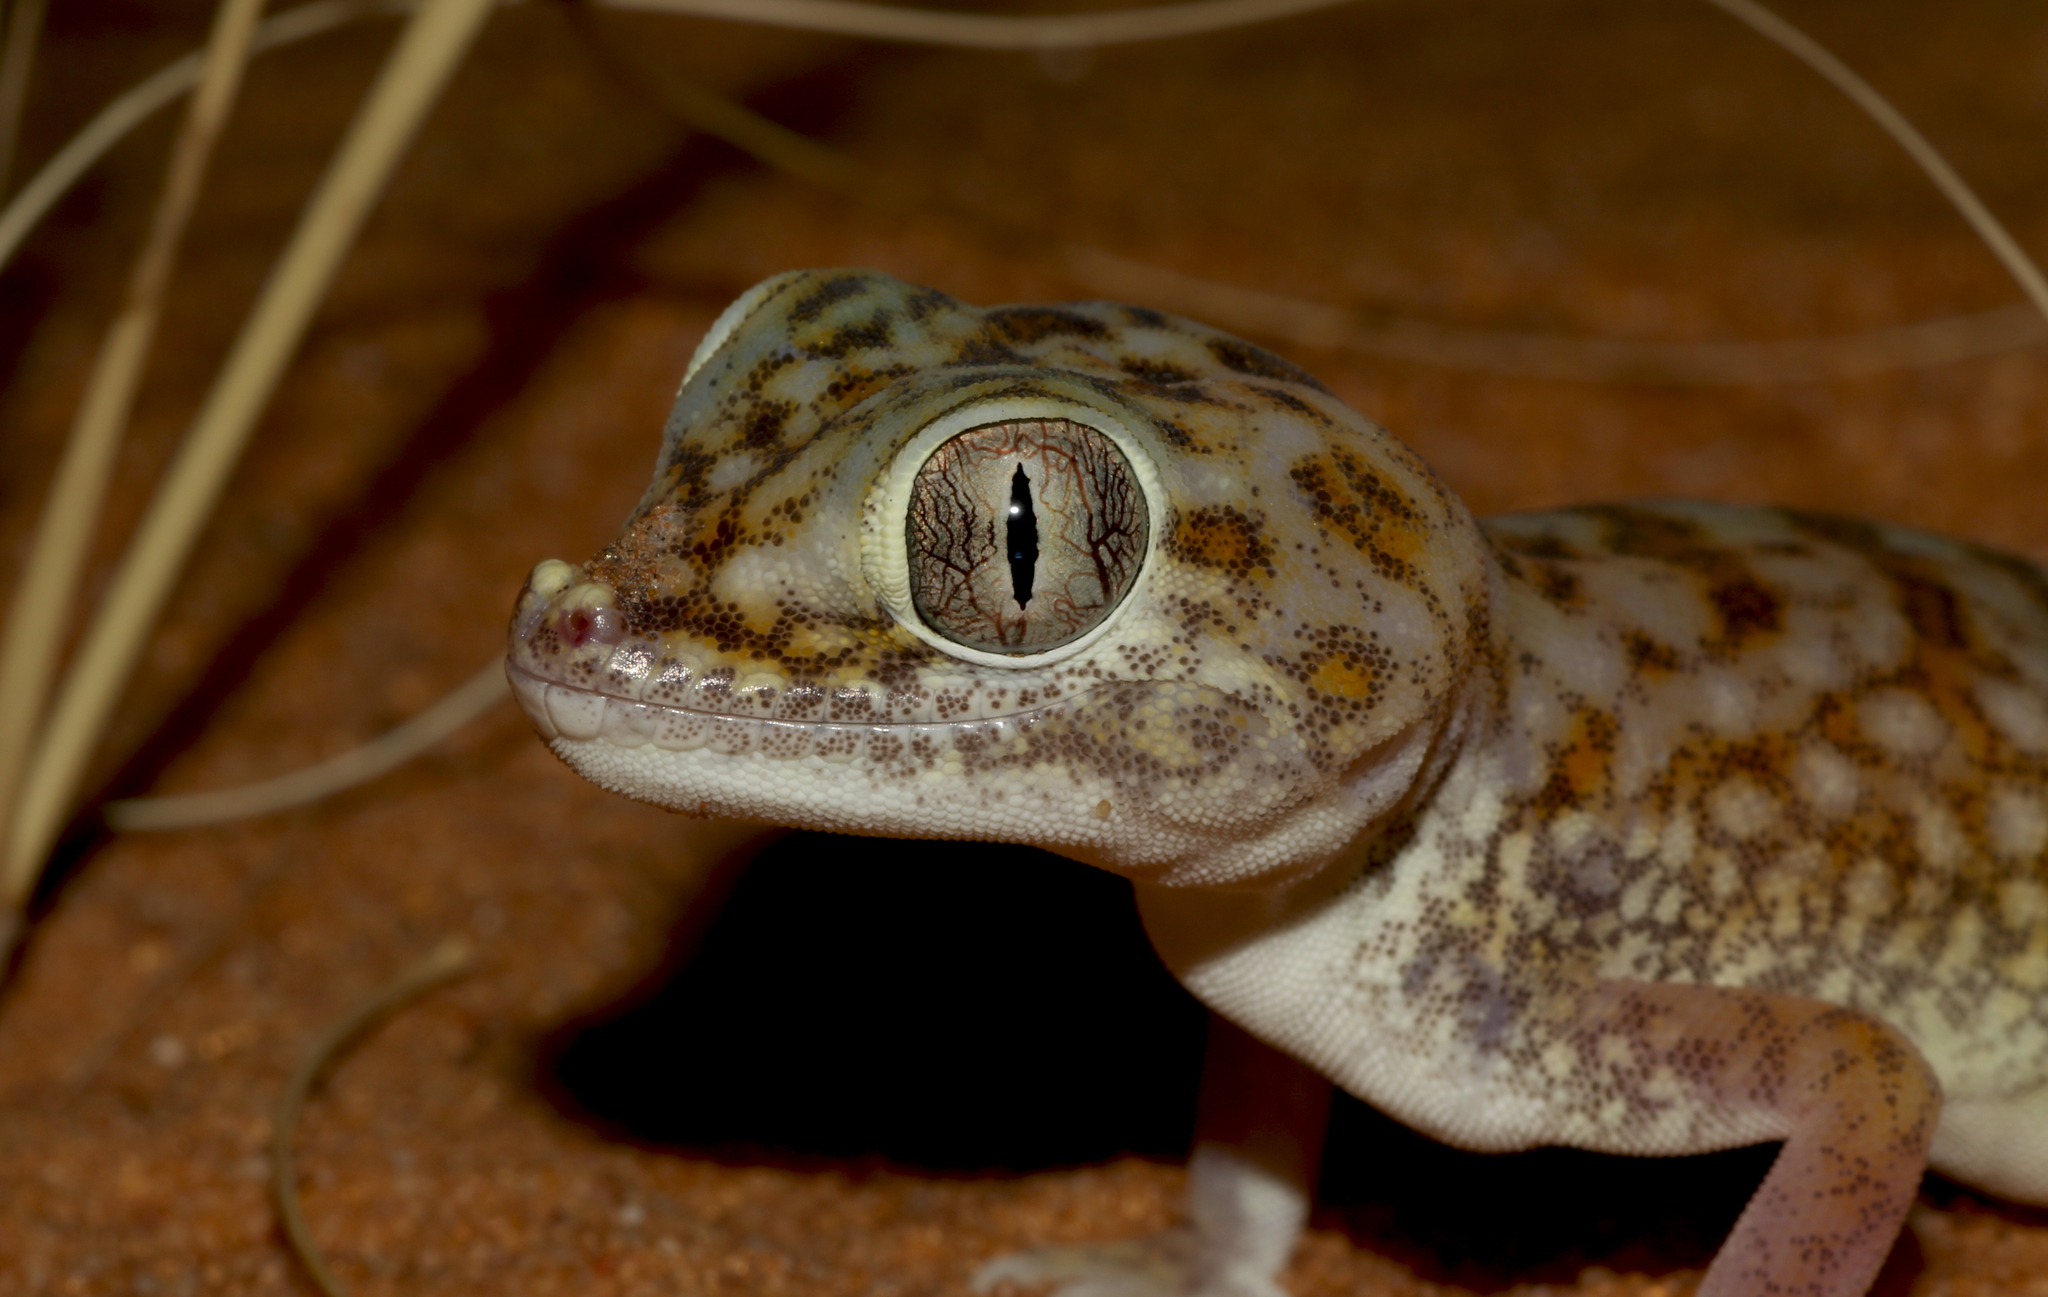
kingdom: Animalia
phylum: Chordata
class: Squamata
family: Gekkonidae
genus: Stenodactylus
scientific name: Stenodactylus doriae
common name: Dune sand gecko
